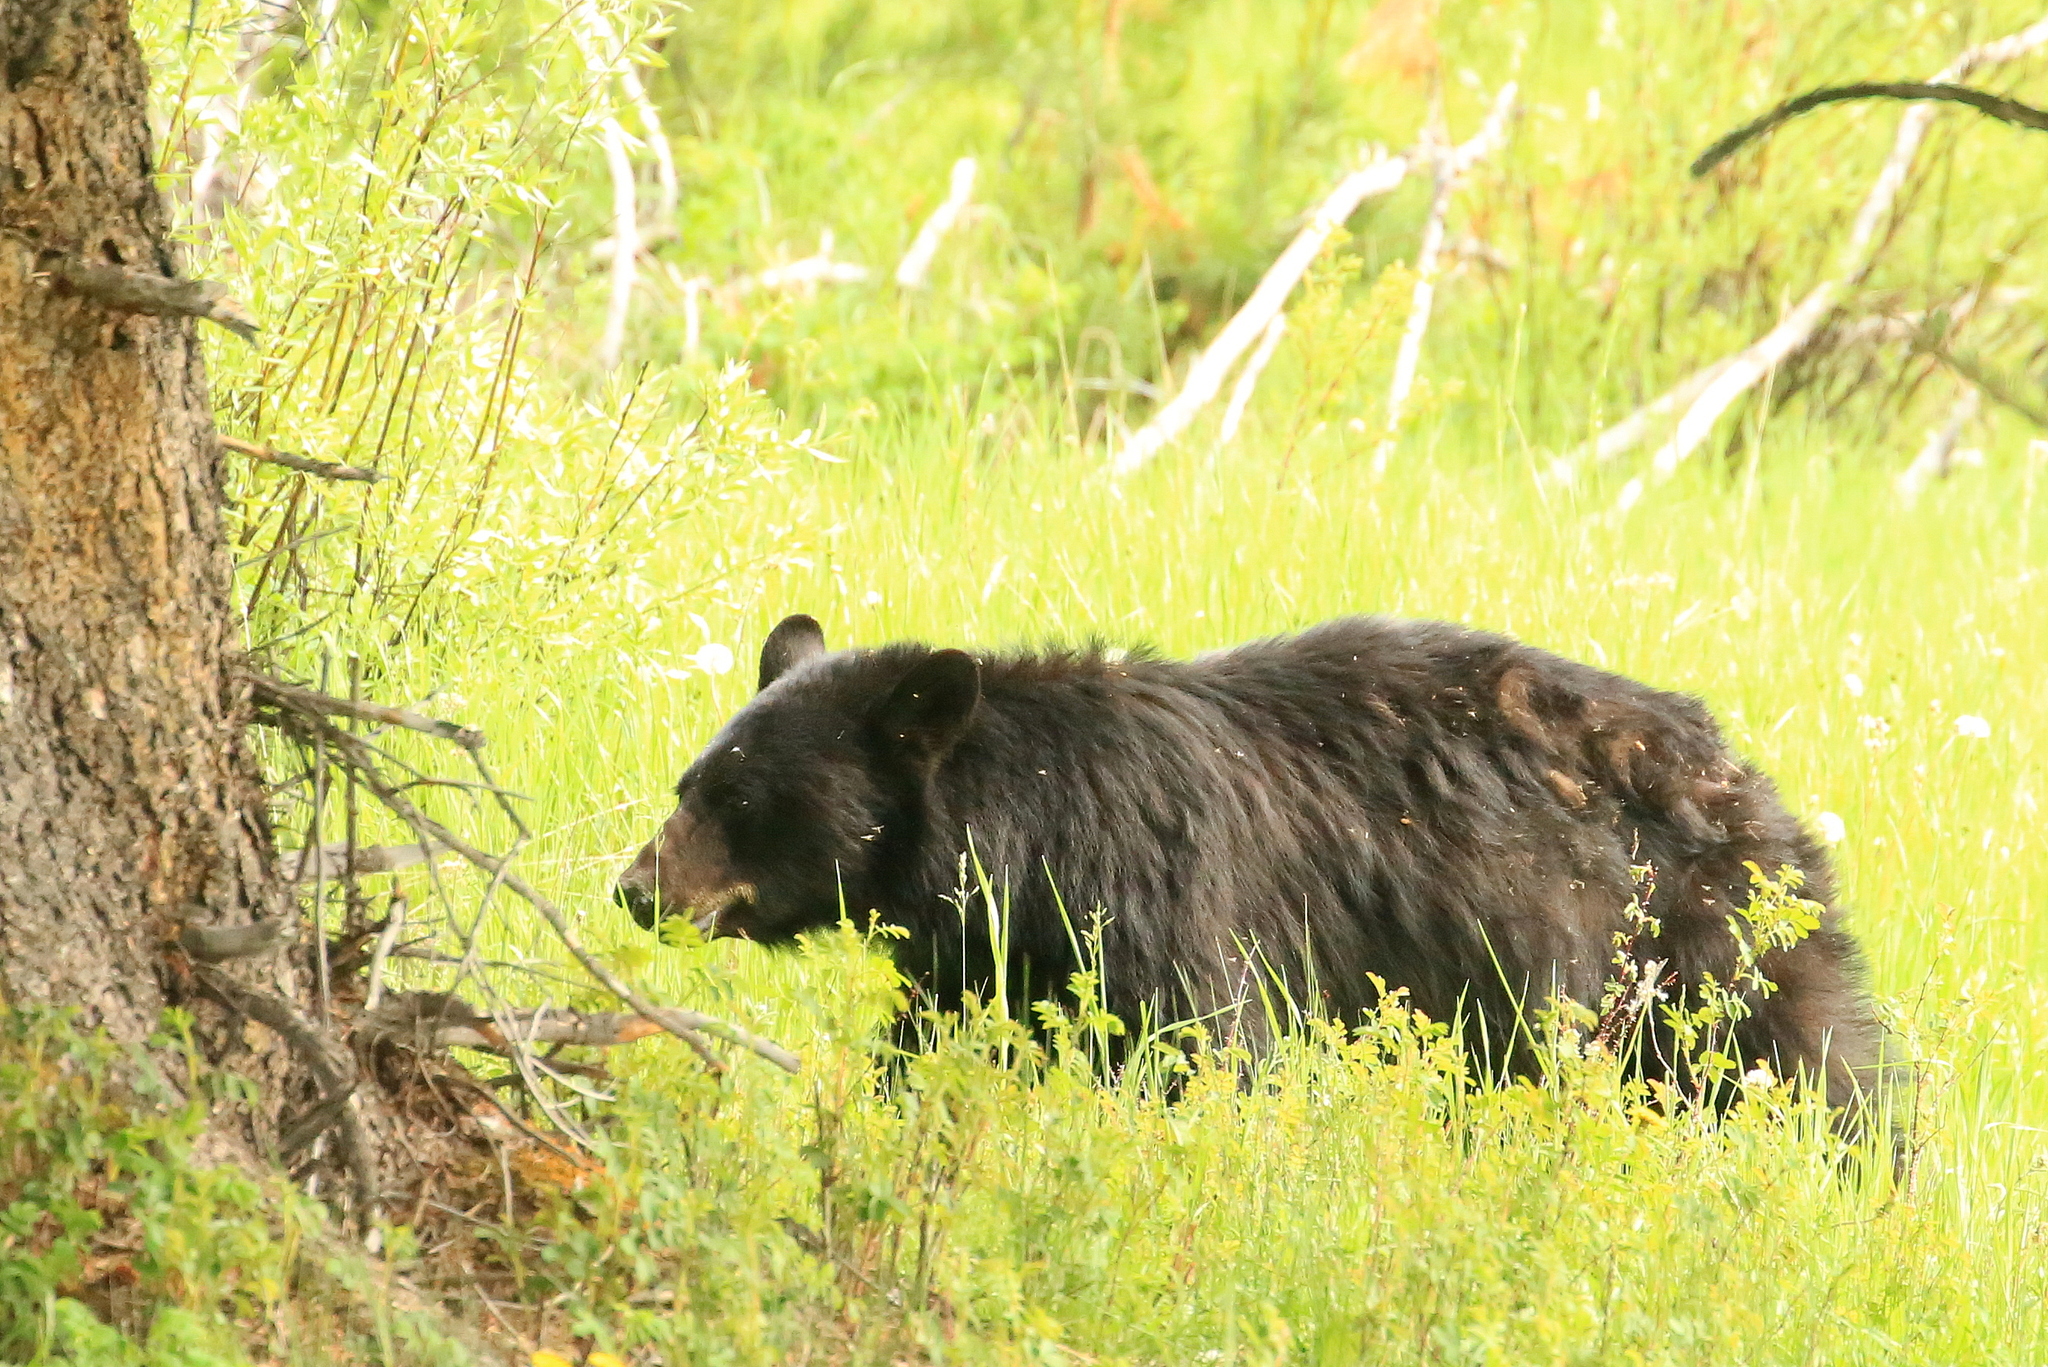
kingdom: Animalia
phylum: Chordata
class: Mammalia
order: Carnivora
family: Ursidae
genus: Ursus
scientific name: Ursus americanus
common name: American black bear
